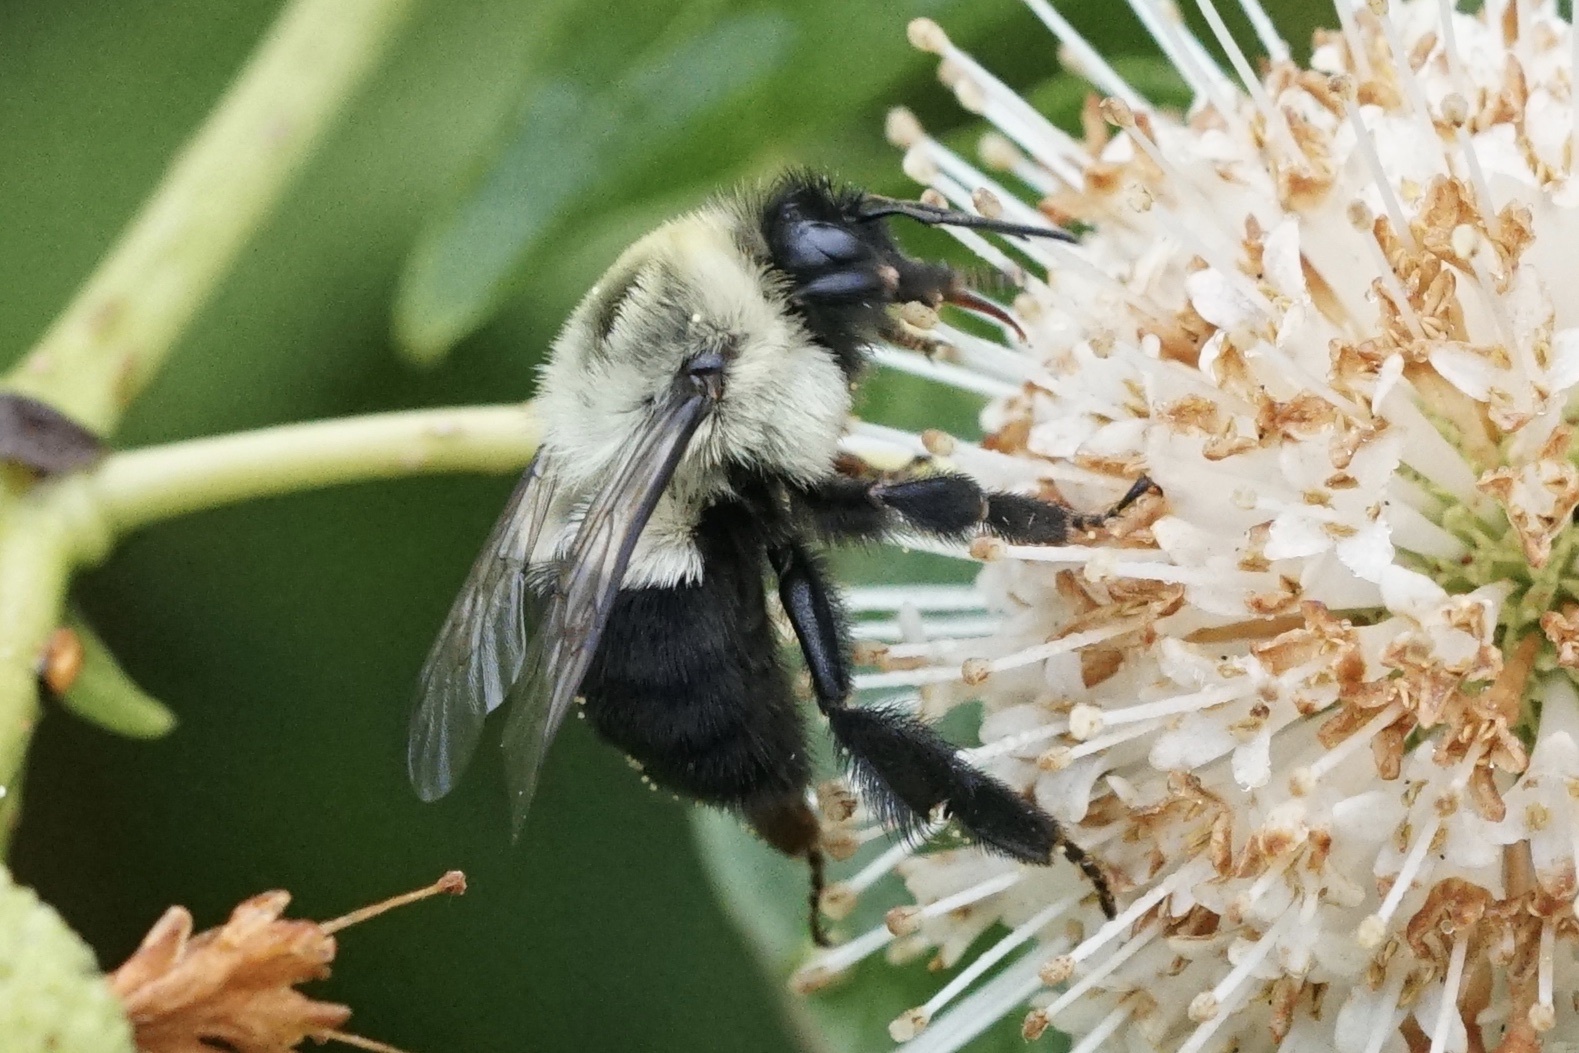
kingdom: Animalia
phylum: Arthropoda
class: Insecta
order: Hymenoptera
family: Apidae
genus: Bombus
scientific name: Bombus impatiens
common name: Common eastern bumble bee
